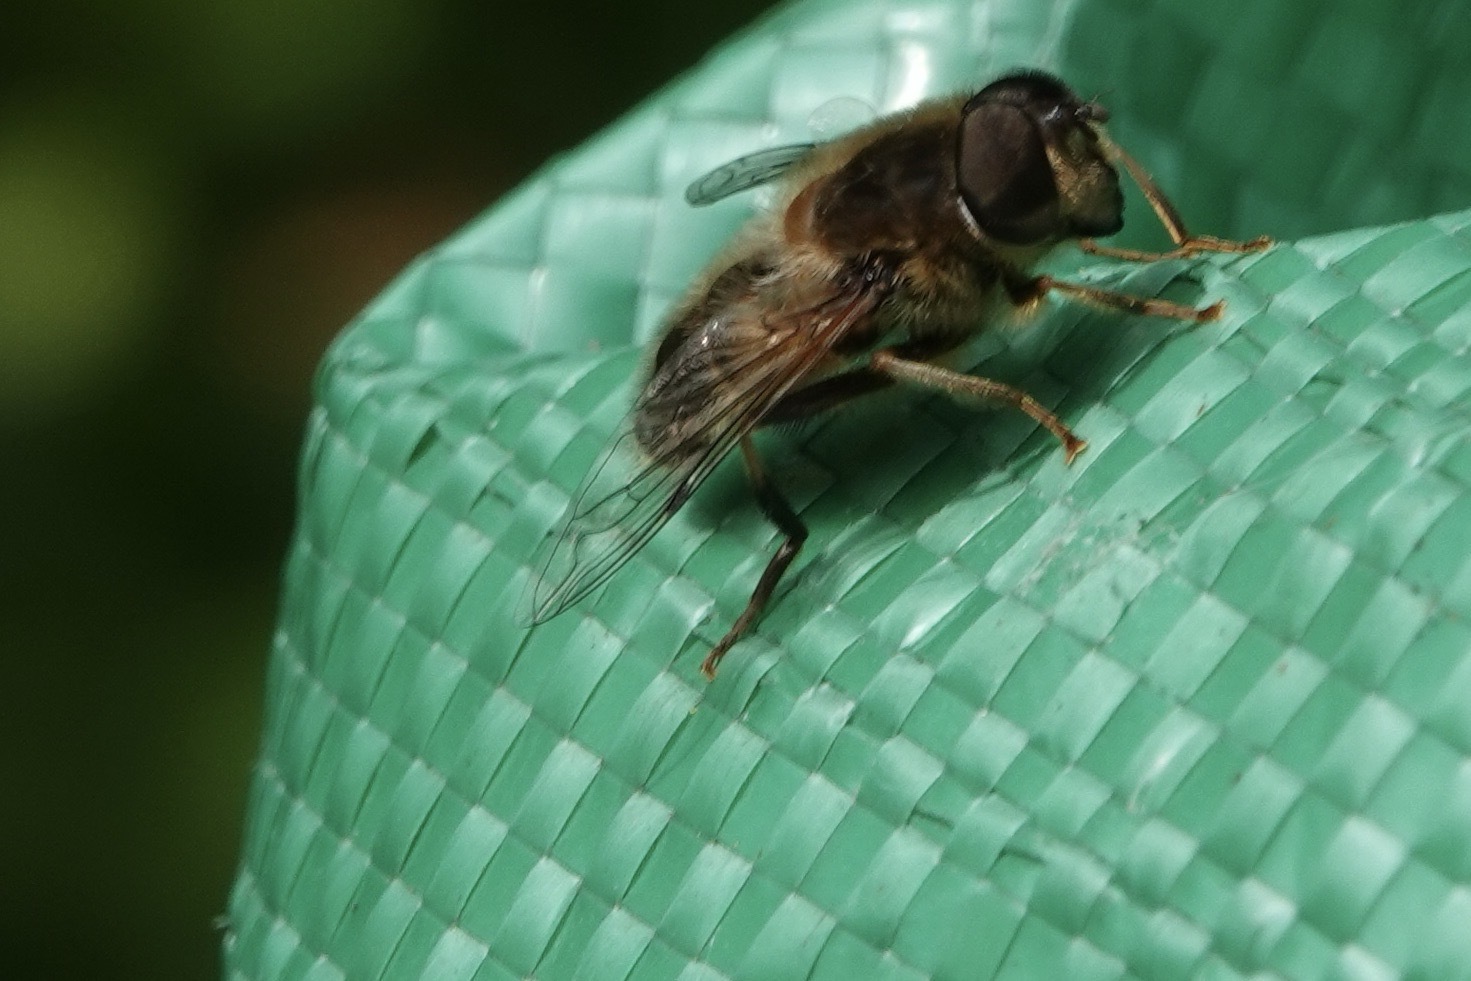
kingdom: Animalia
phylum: Arthropoda
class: Insecta
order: Diptera
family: Syrphidae
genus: Eristalis
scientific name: Eristalis pertinax
